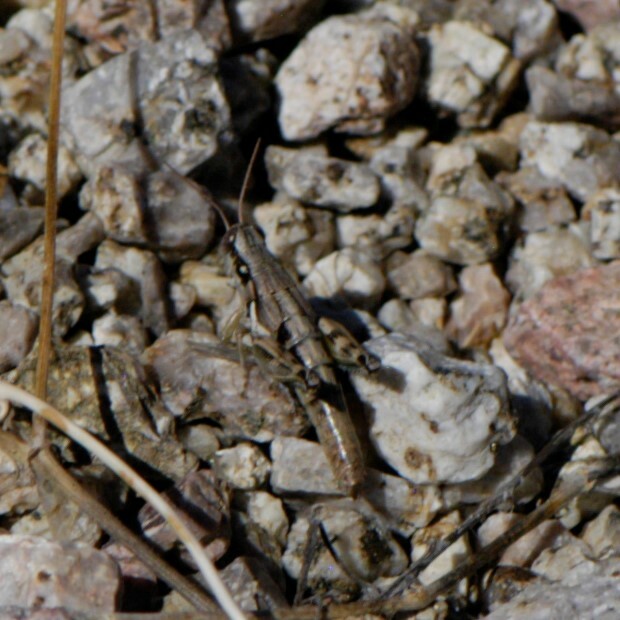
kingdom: Animalia
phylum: Arthropoda
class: Insecta
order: Orthoptera
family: Acrididae
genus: Melanoplus
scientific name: Melanoplus aridus
